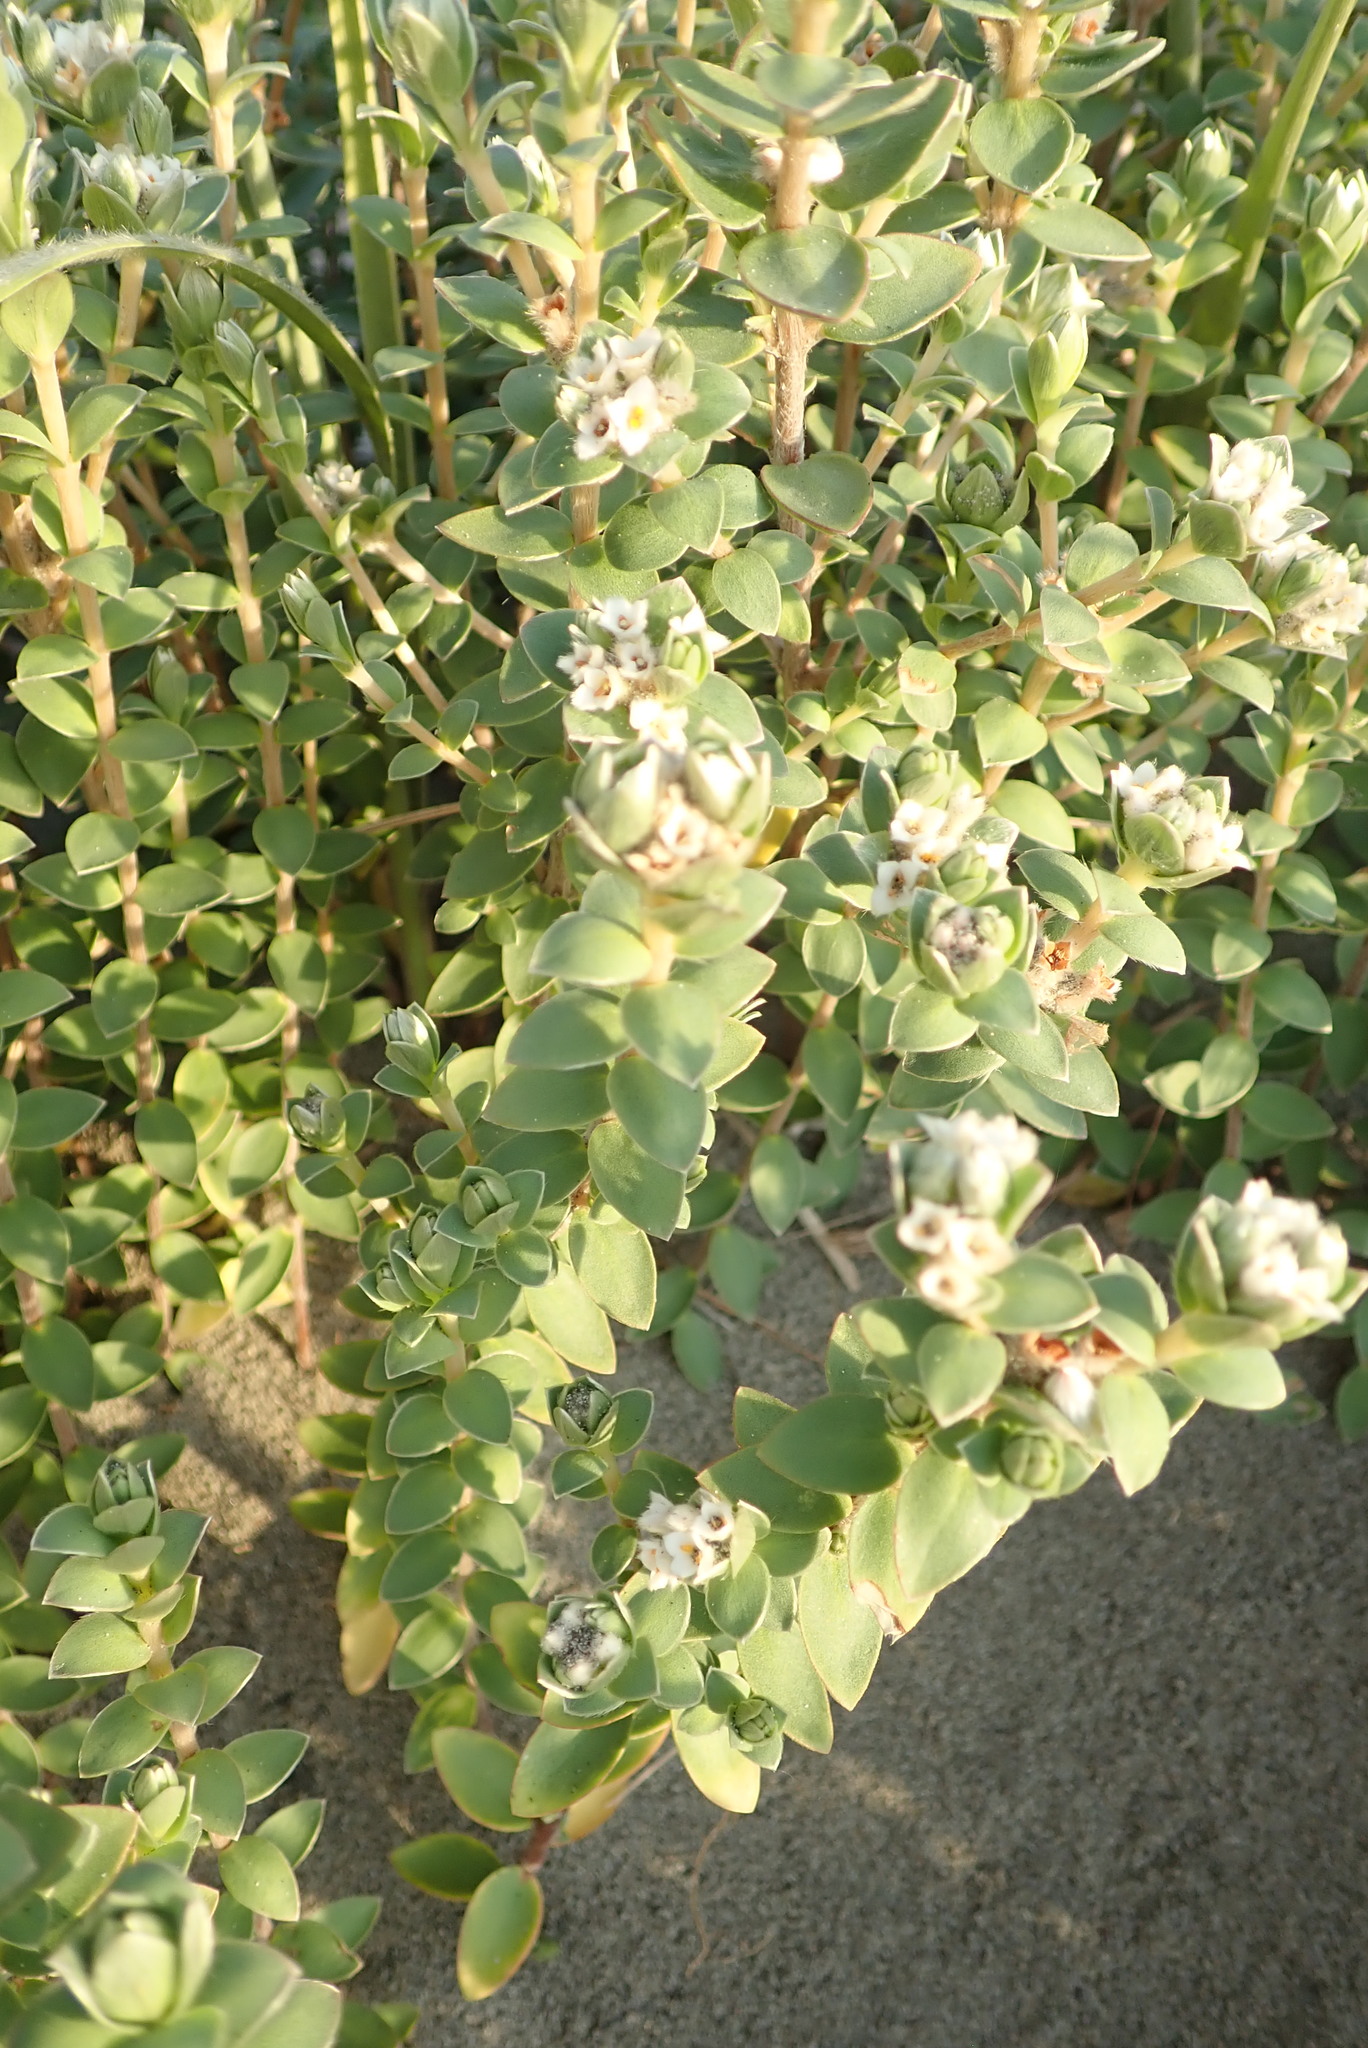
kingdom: Plantae
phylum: Tracheophyta
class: Magnoliopsida
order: Malvales
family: Thymelaeaceae
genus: Pimelea
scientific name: Pimelea villosa
